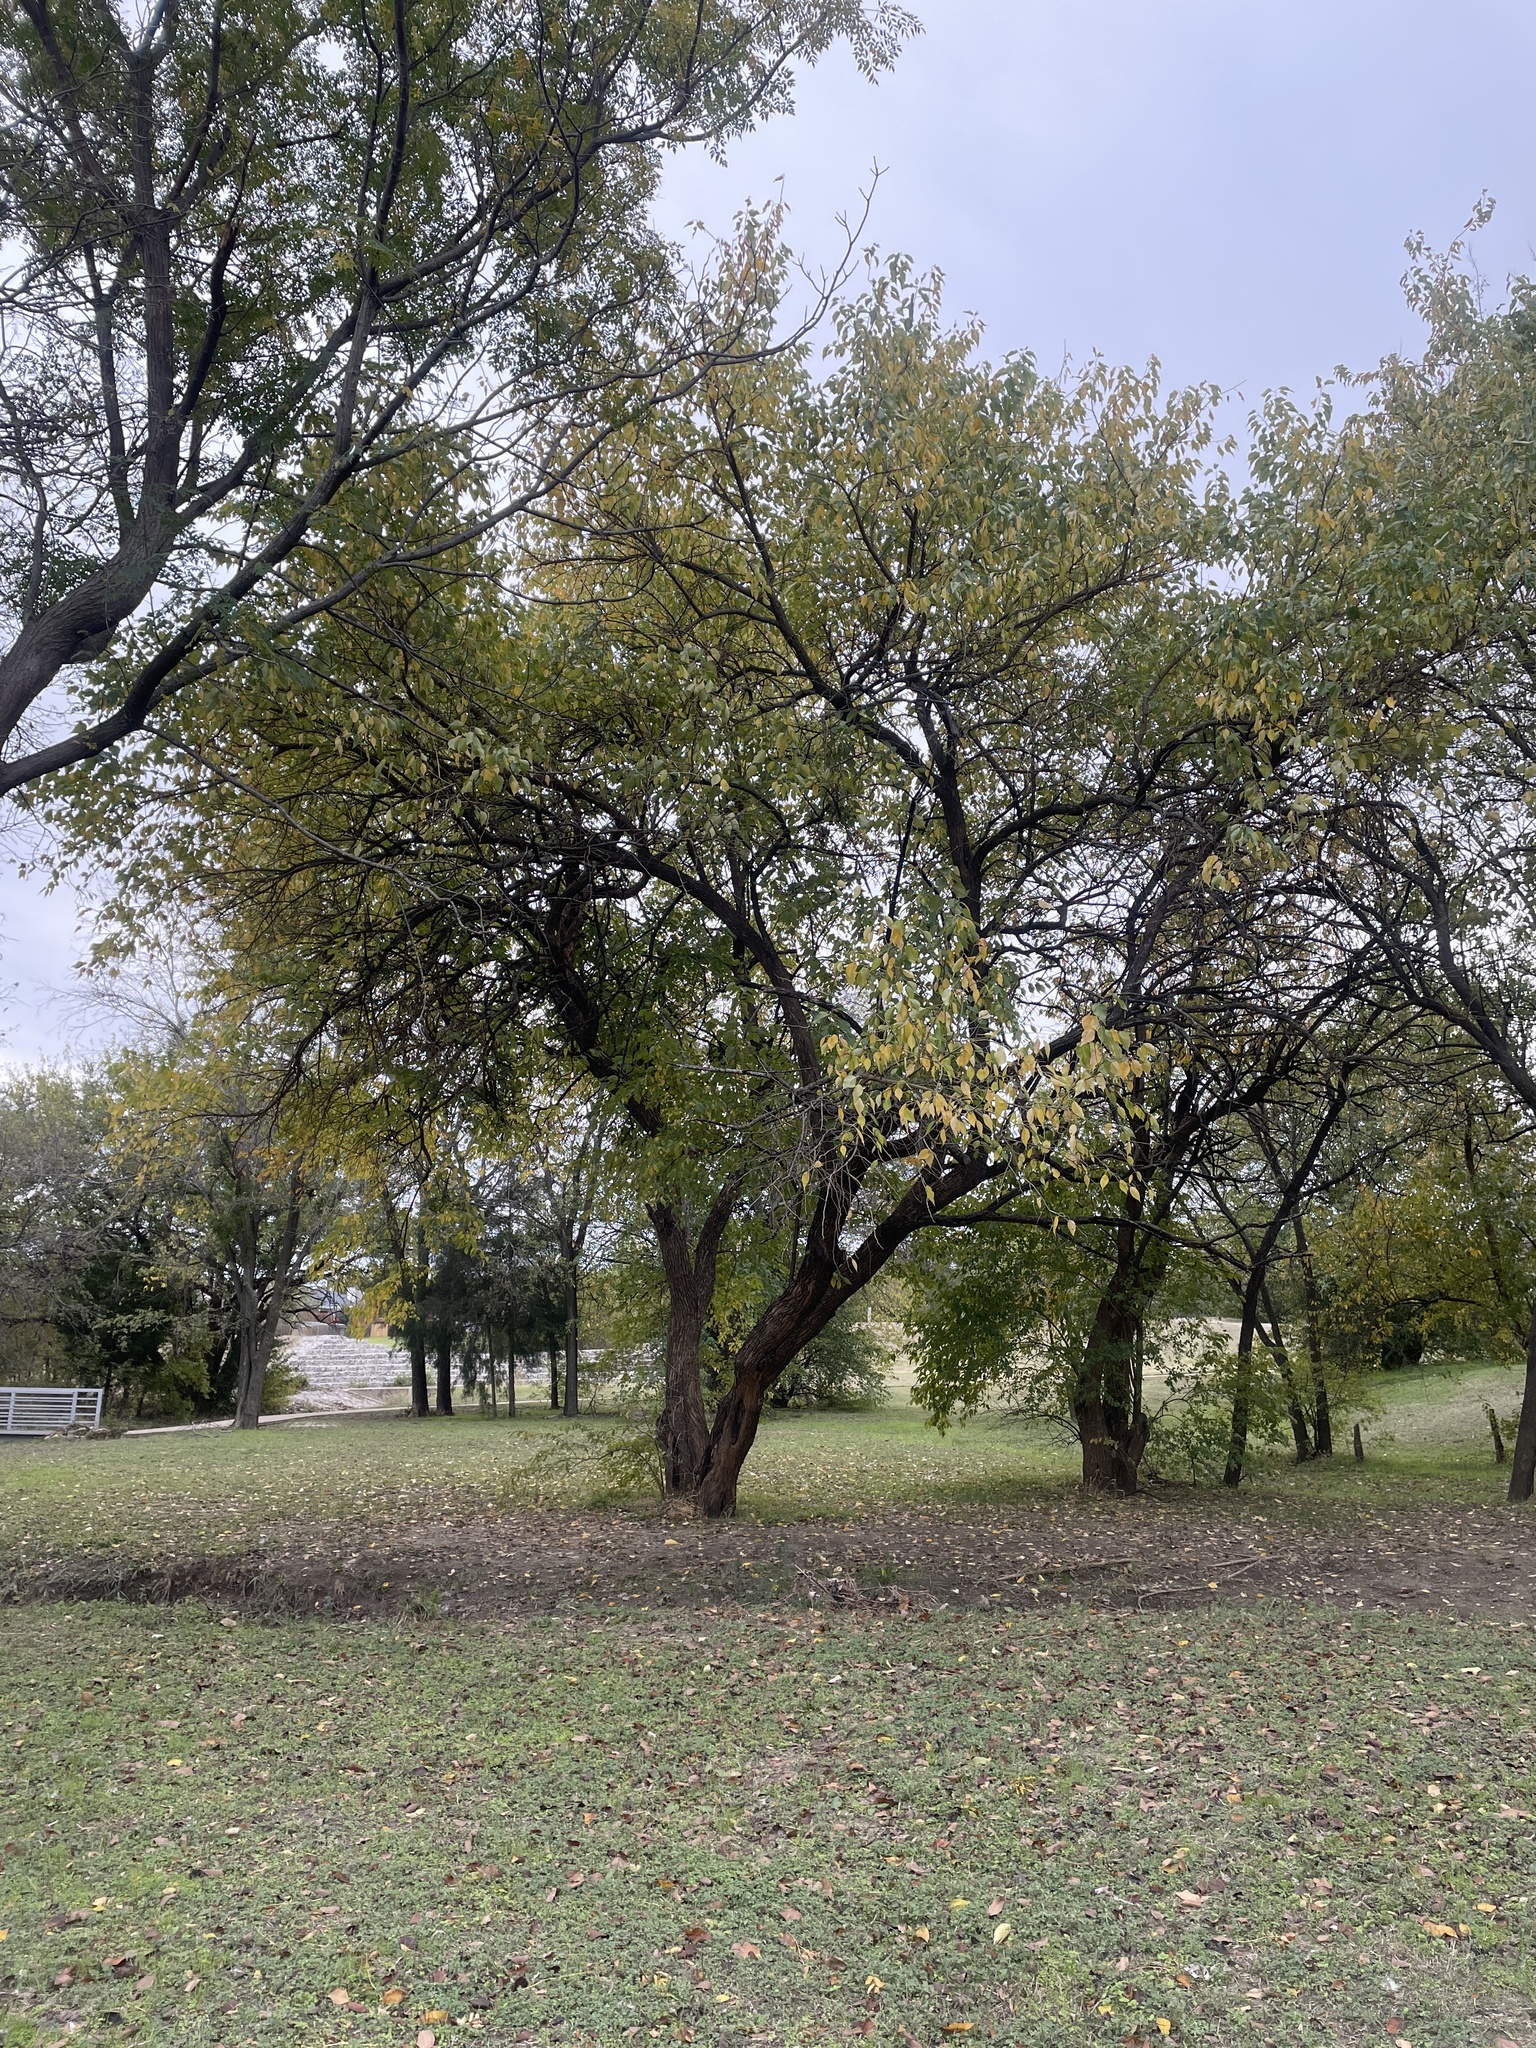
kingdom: Plantae
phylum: Tracheophyta
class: Magnoliopsida
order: Rosales
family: Moraceae
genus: Maclura
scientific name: Maclura pomifera
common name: Osage-orange
